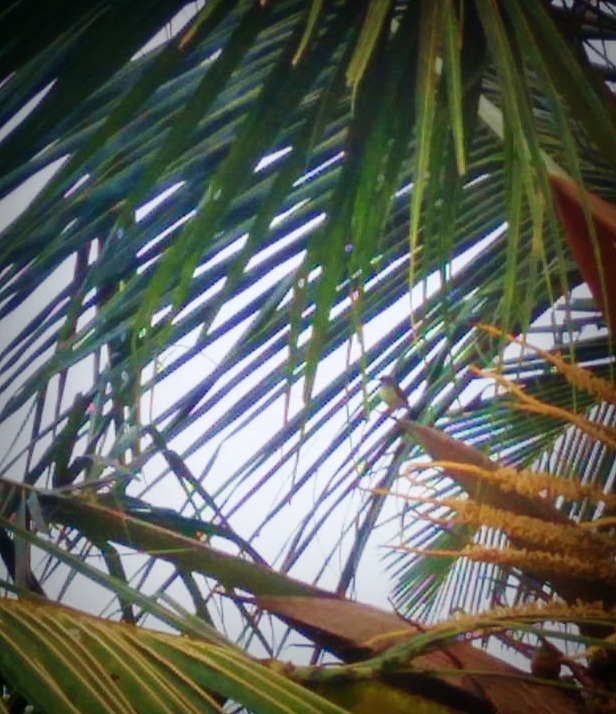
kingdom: Animalia
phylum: Chordata
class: Aves
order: Passeriformes
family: Nectariniidae
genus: Leptocoma
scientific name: Leptocoma zeylonica
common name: Purple-rumped sunbird
